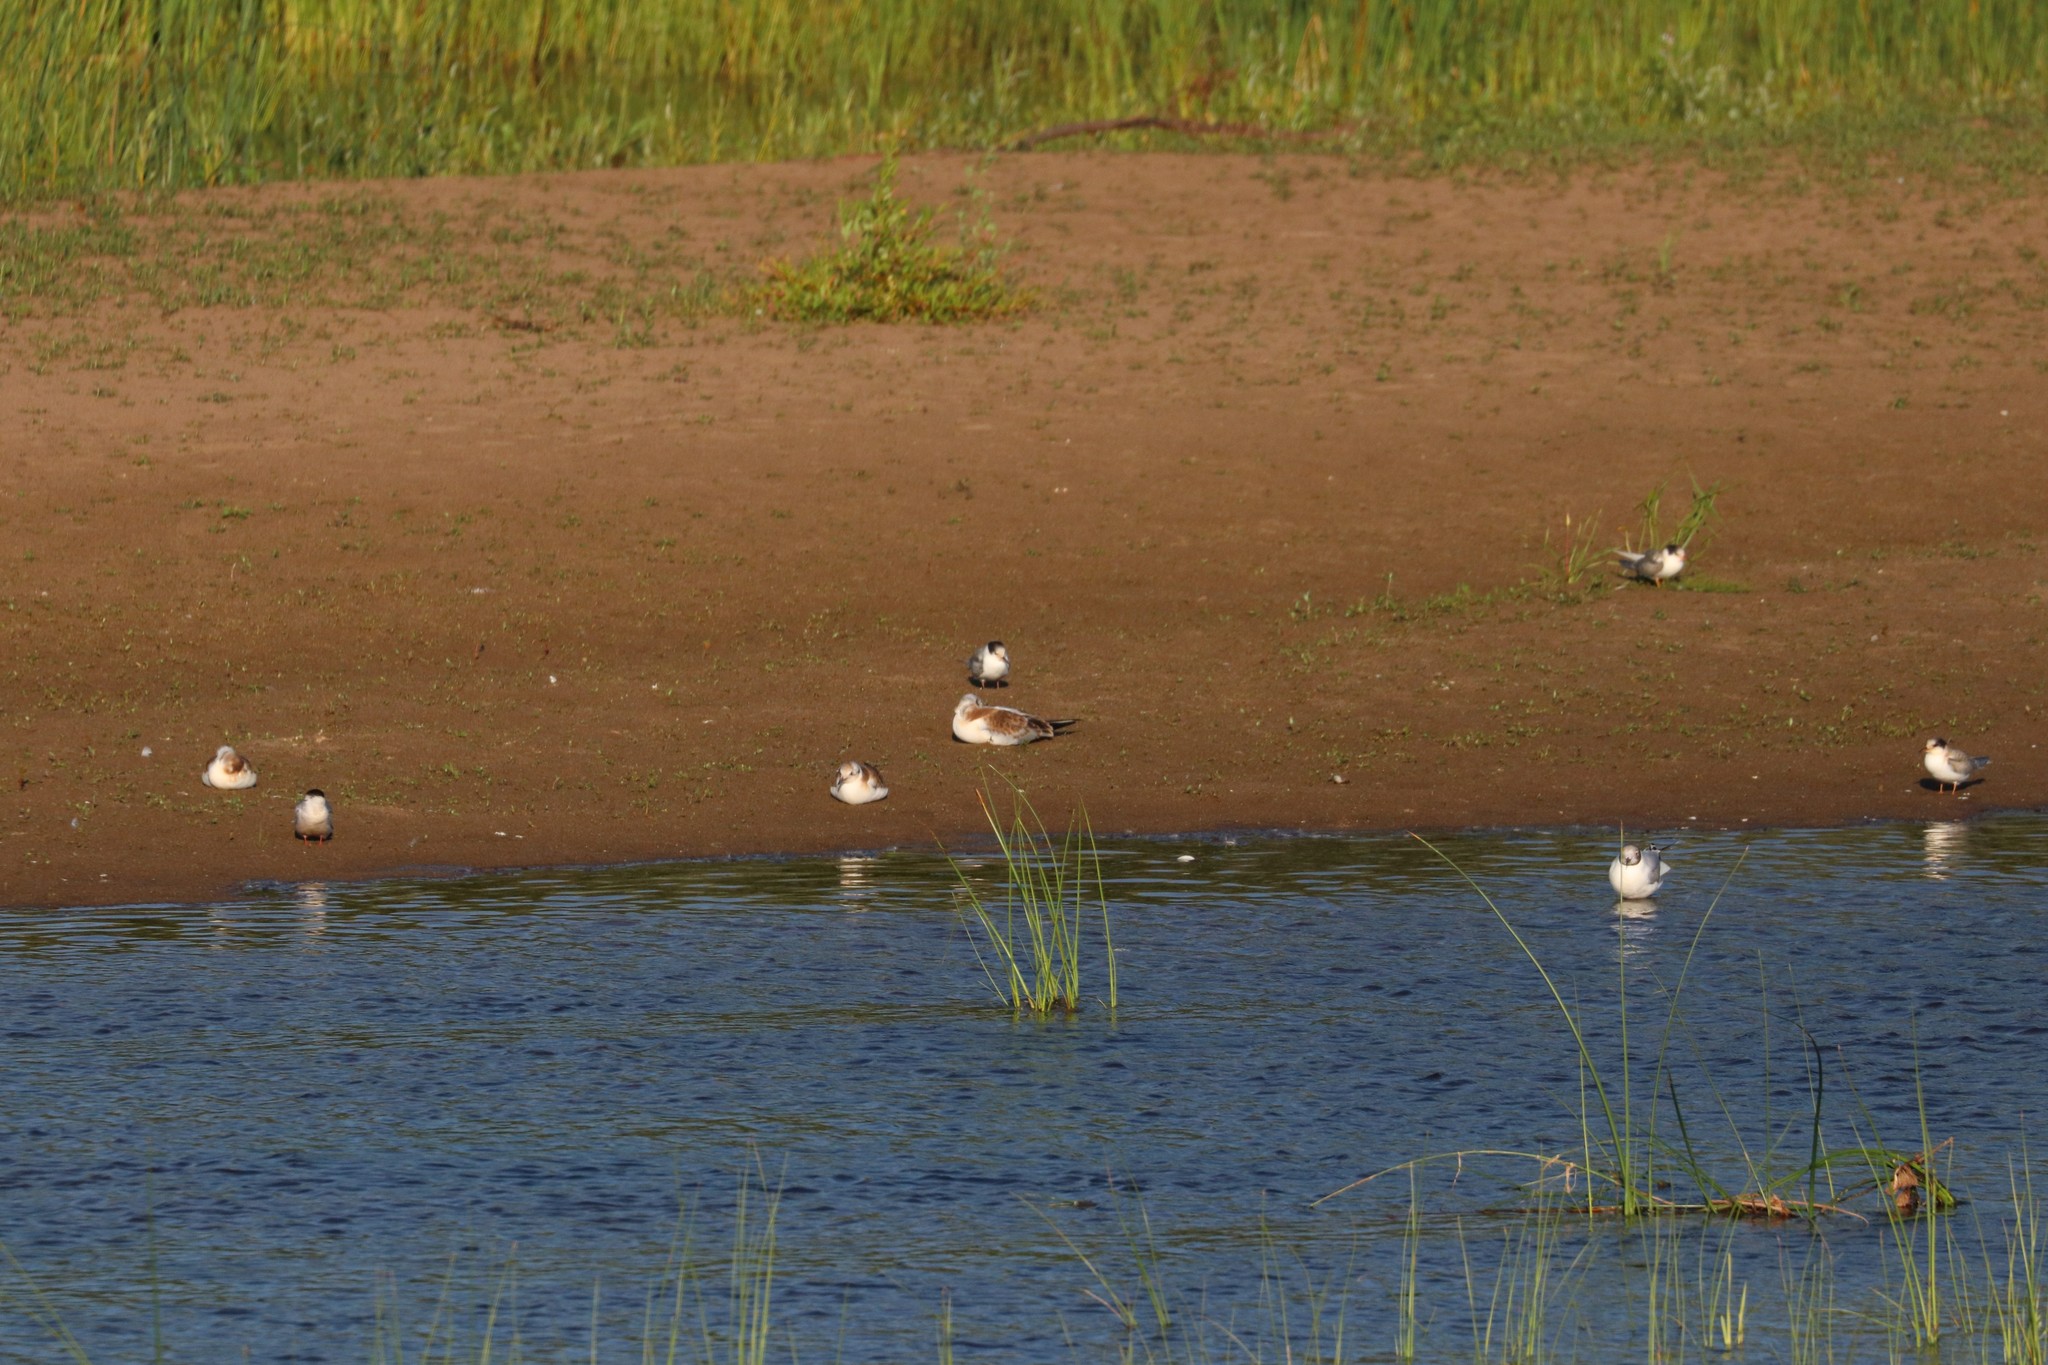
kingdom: Animalia
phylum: Chordata
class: Aves
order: Charadriiformes
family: Laridae
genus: Chroicocephalus
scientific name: Chroicocephalus ridibundus
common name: Black-headed gull
